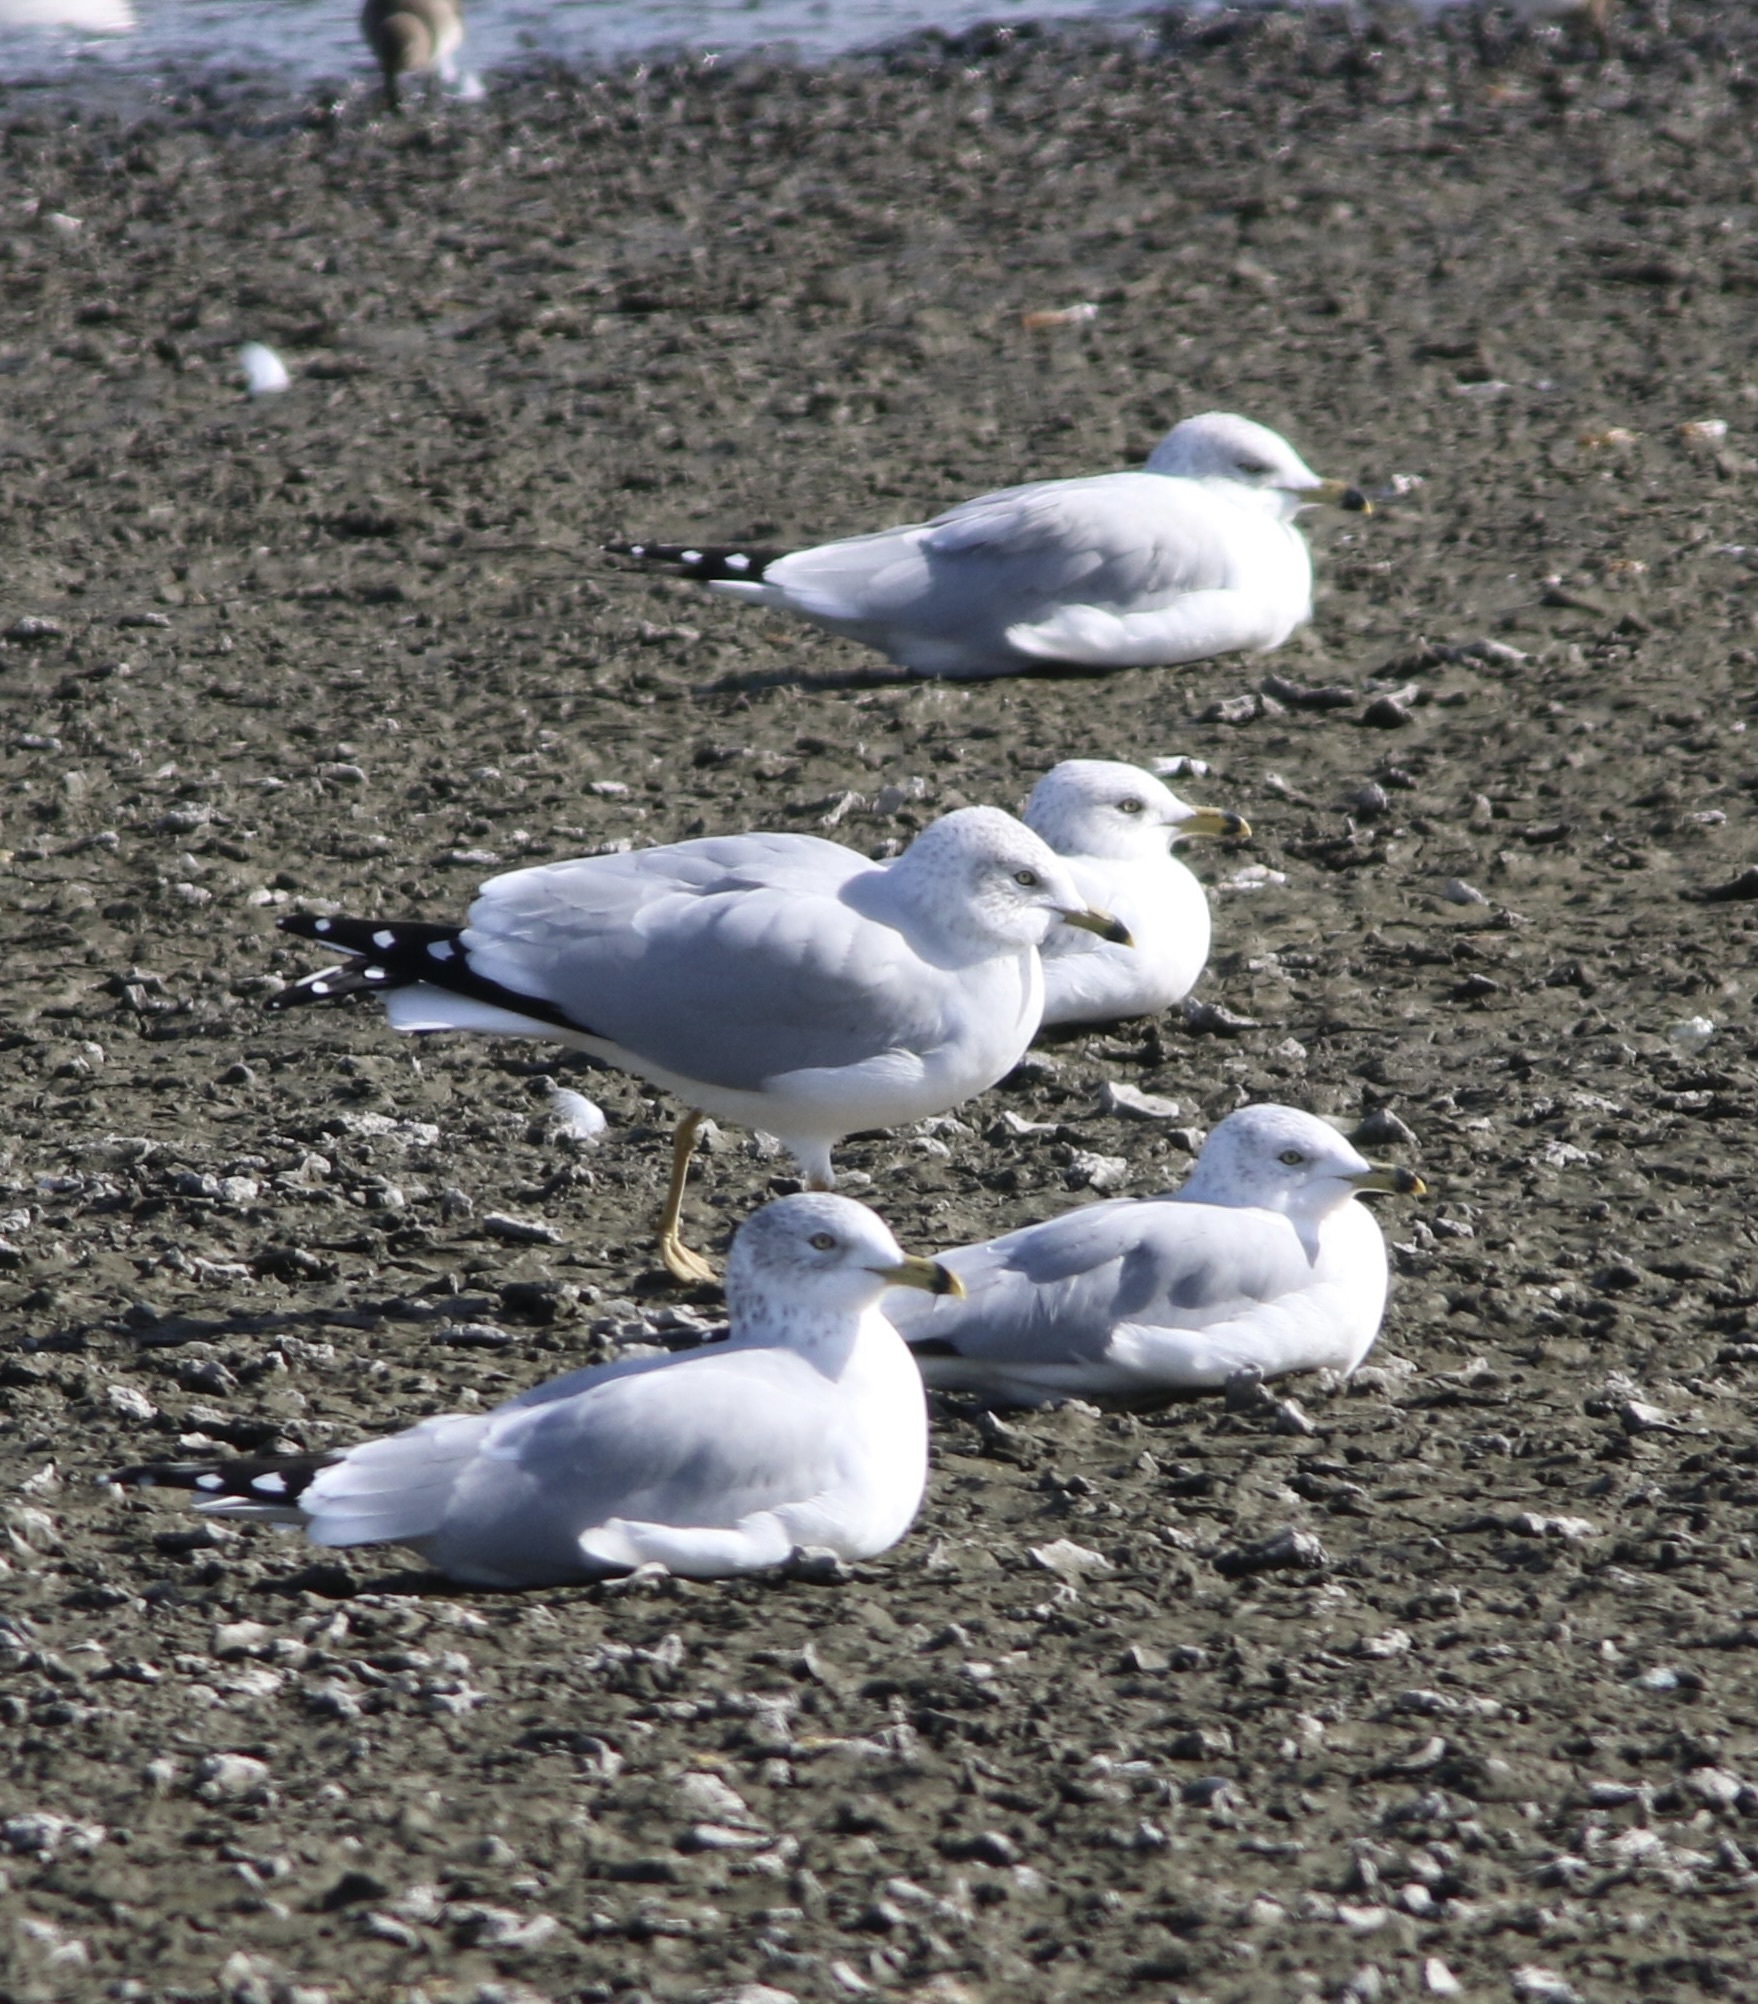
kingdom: Animalia
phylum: Chordata
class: Aves
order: Charadriiformes
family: Laridae
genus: Larus
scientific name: Larus delawarensis
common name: Ring-billed gull
